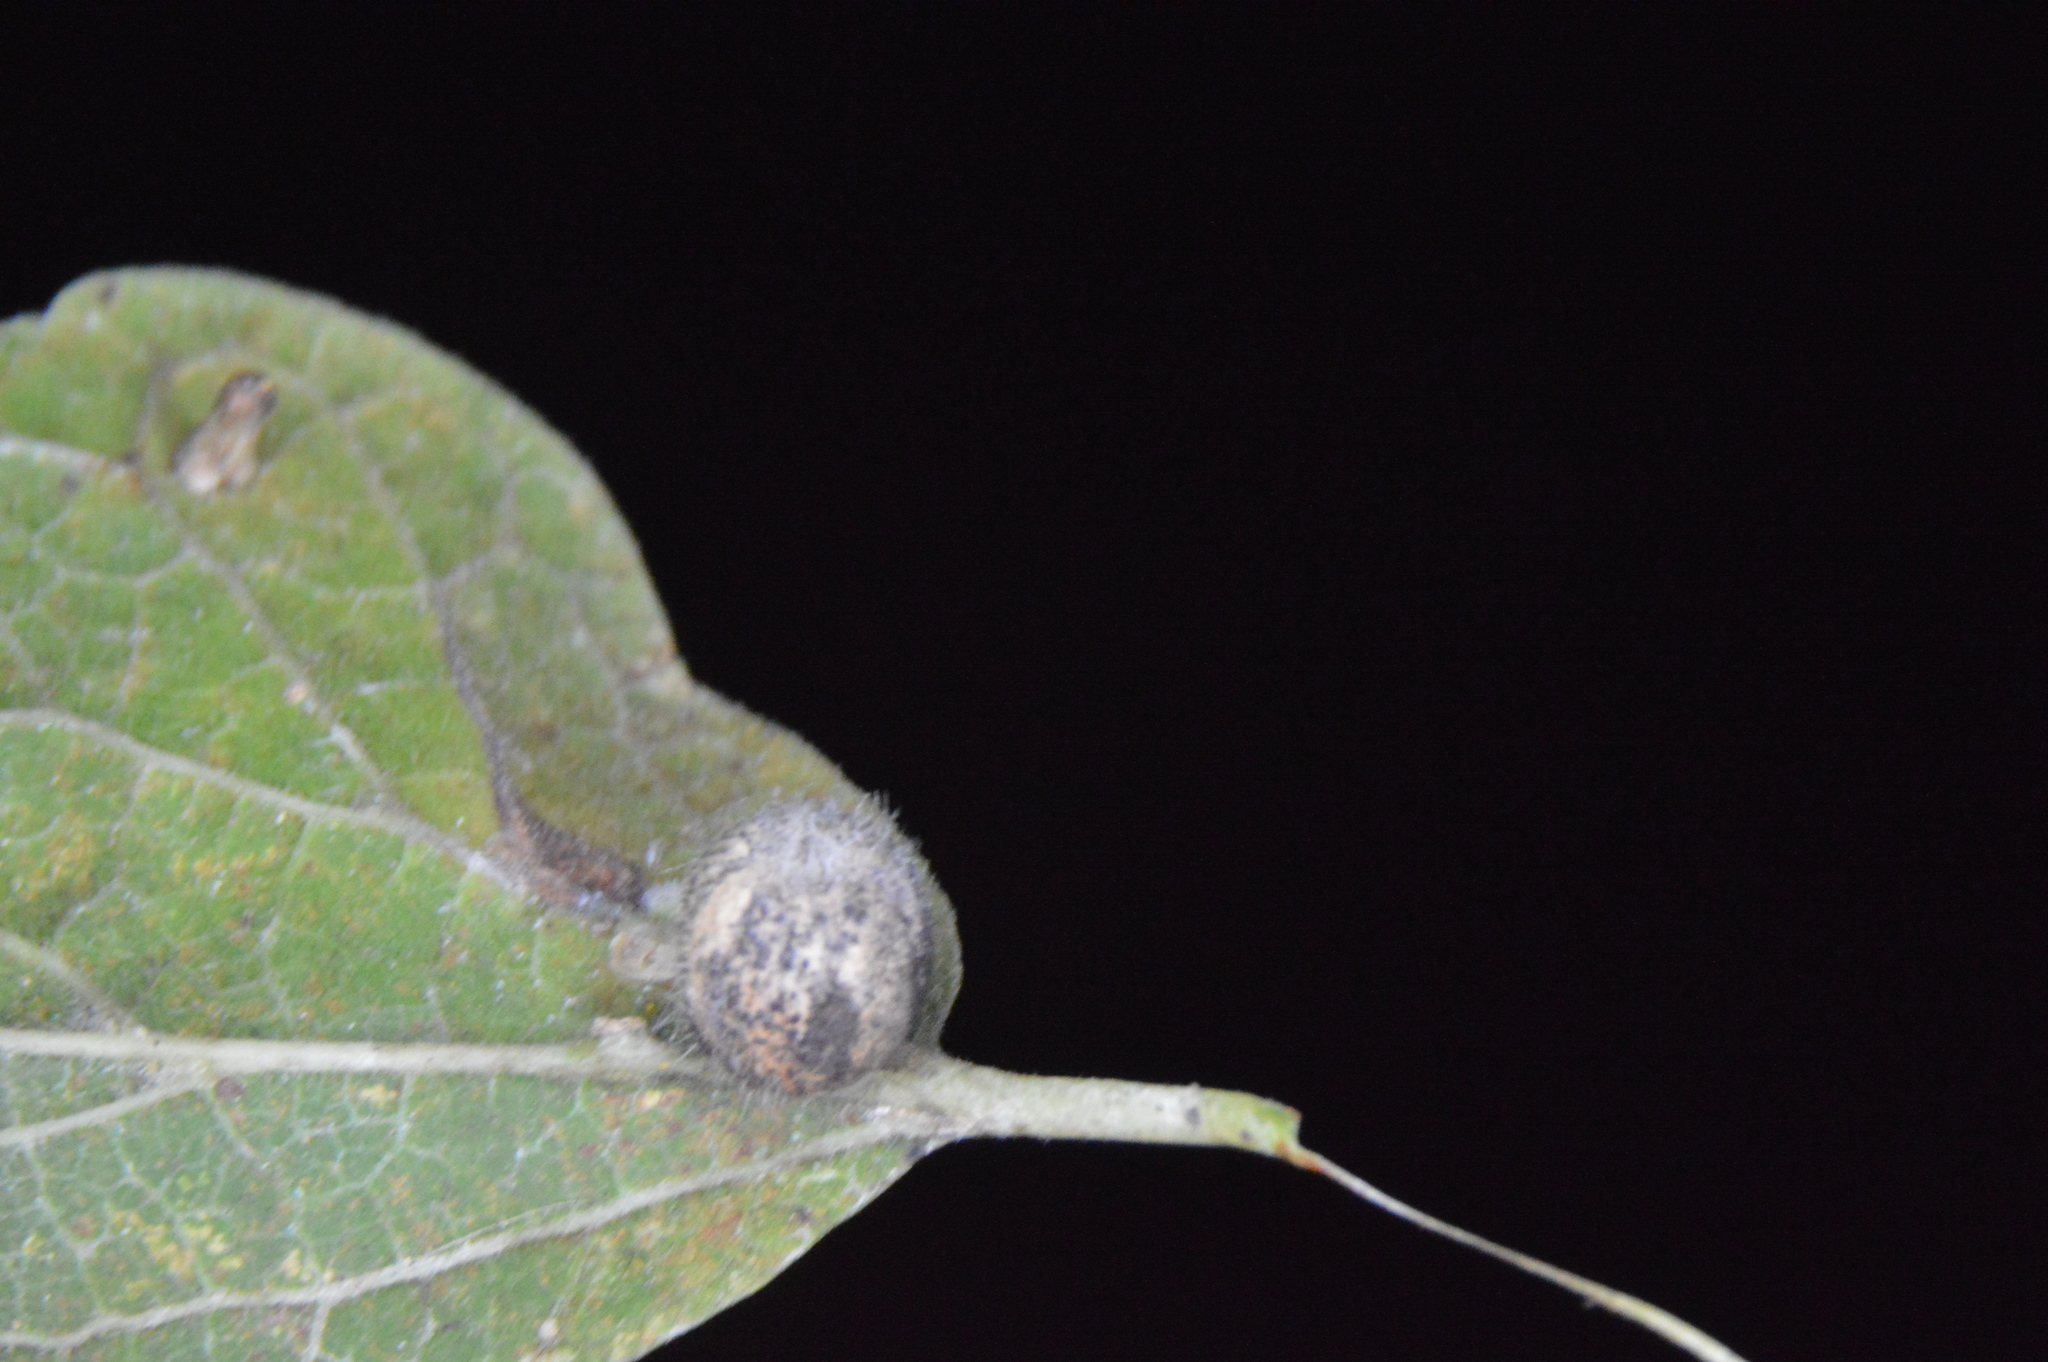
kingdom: Animalia
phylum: Arthropoda
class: Insecta
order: Diptera
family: Cecidomyiidae
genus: Celticecis
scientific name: Celticecis pubescens
